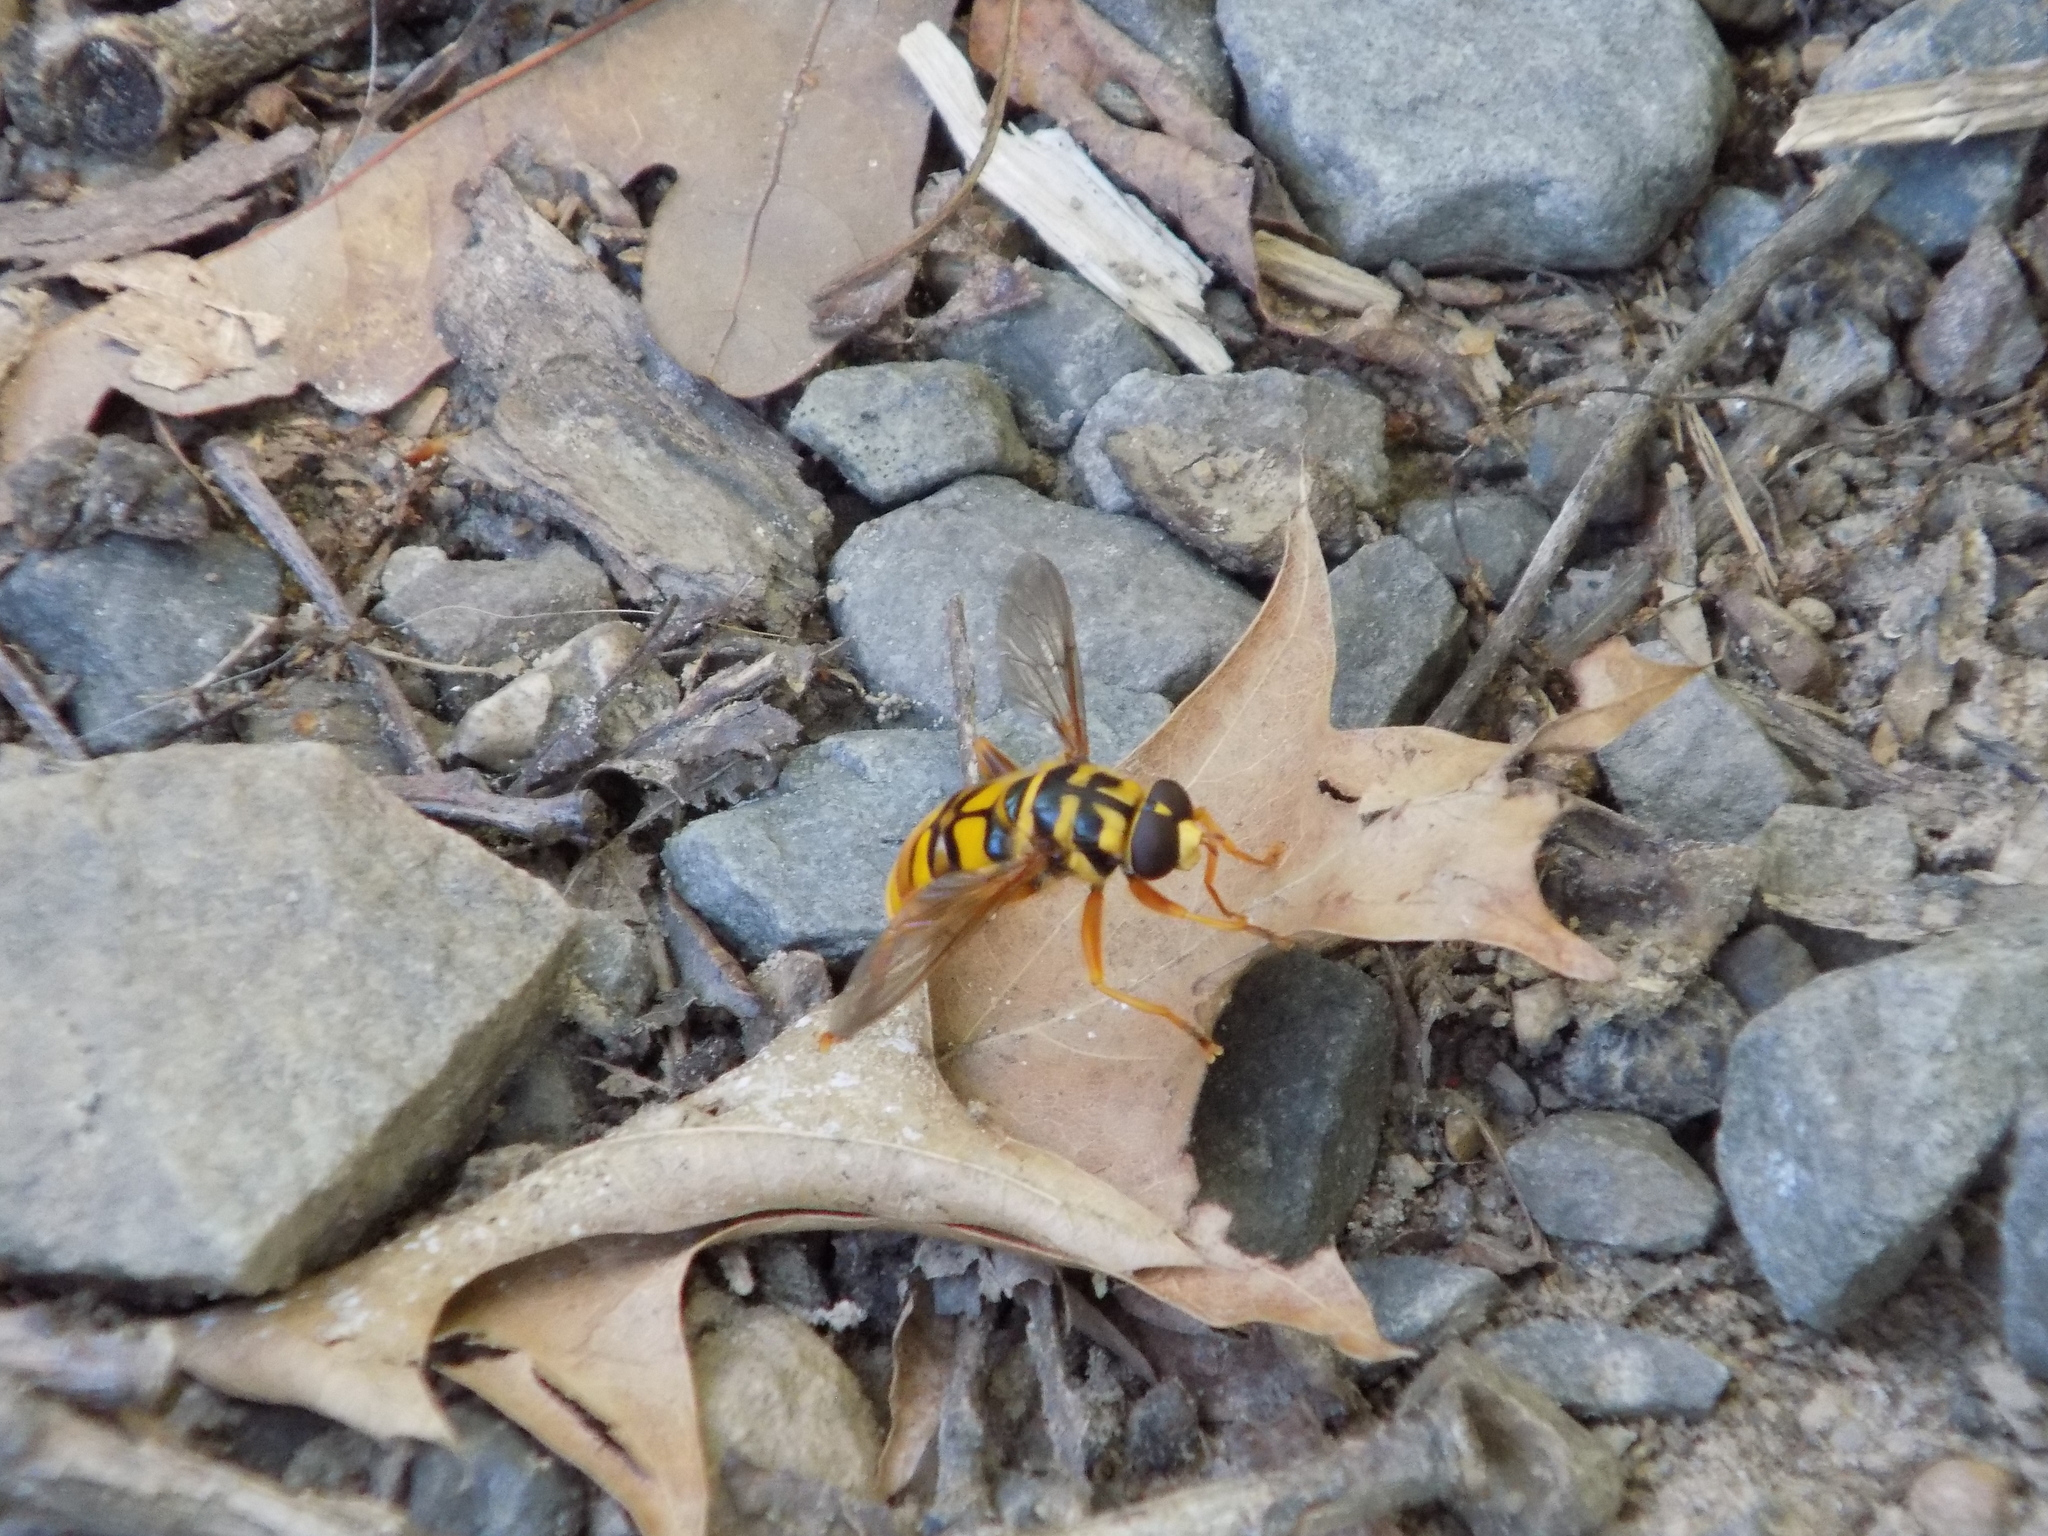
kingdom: Animalia
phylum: Arthropoda
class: Insecta
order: Diptera
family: Syrphidae
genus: Milesia
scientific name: Milesia virginiensis
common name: Virginia giant
